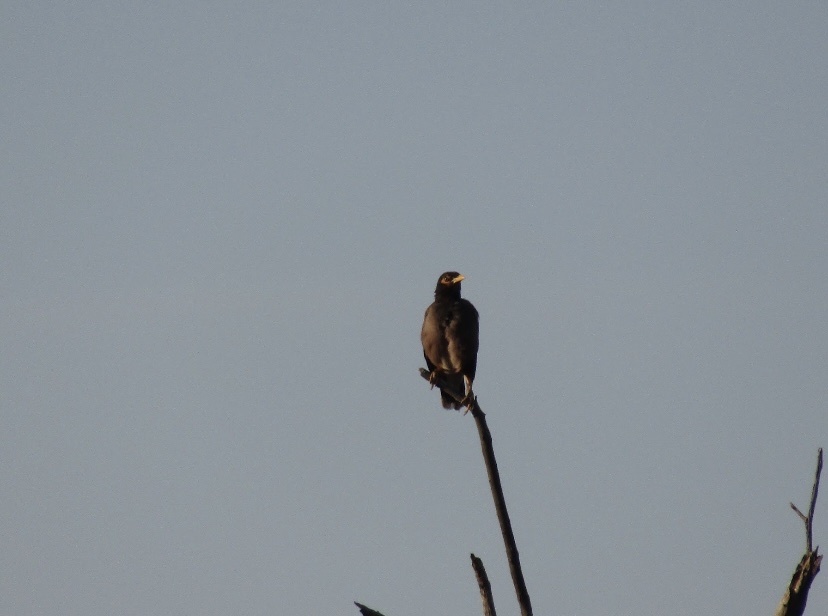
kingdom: Animalia
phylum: Chordata
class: Aves
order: Passeriformes
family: Sturnidae
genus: Acridotheres
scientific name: Acridotheres tristis
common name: Common myna
